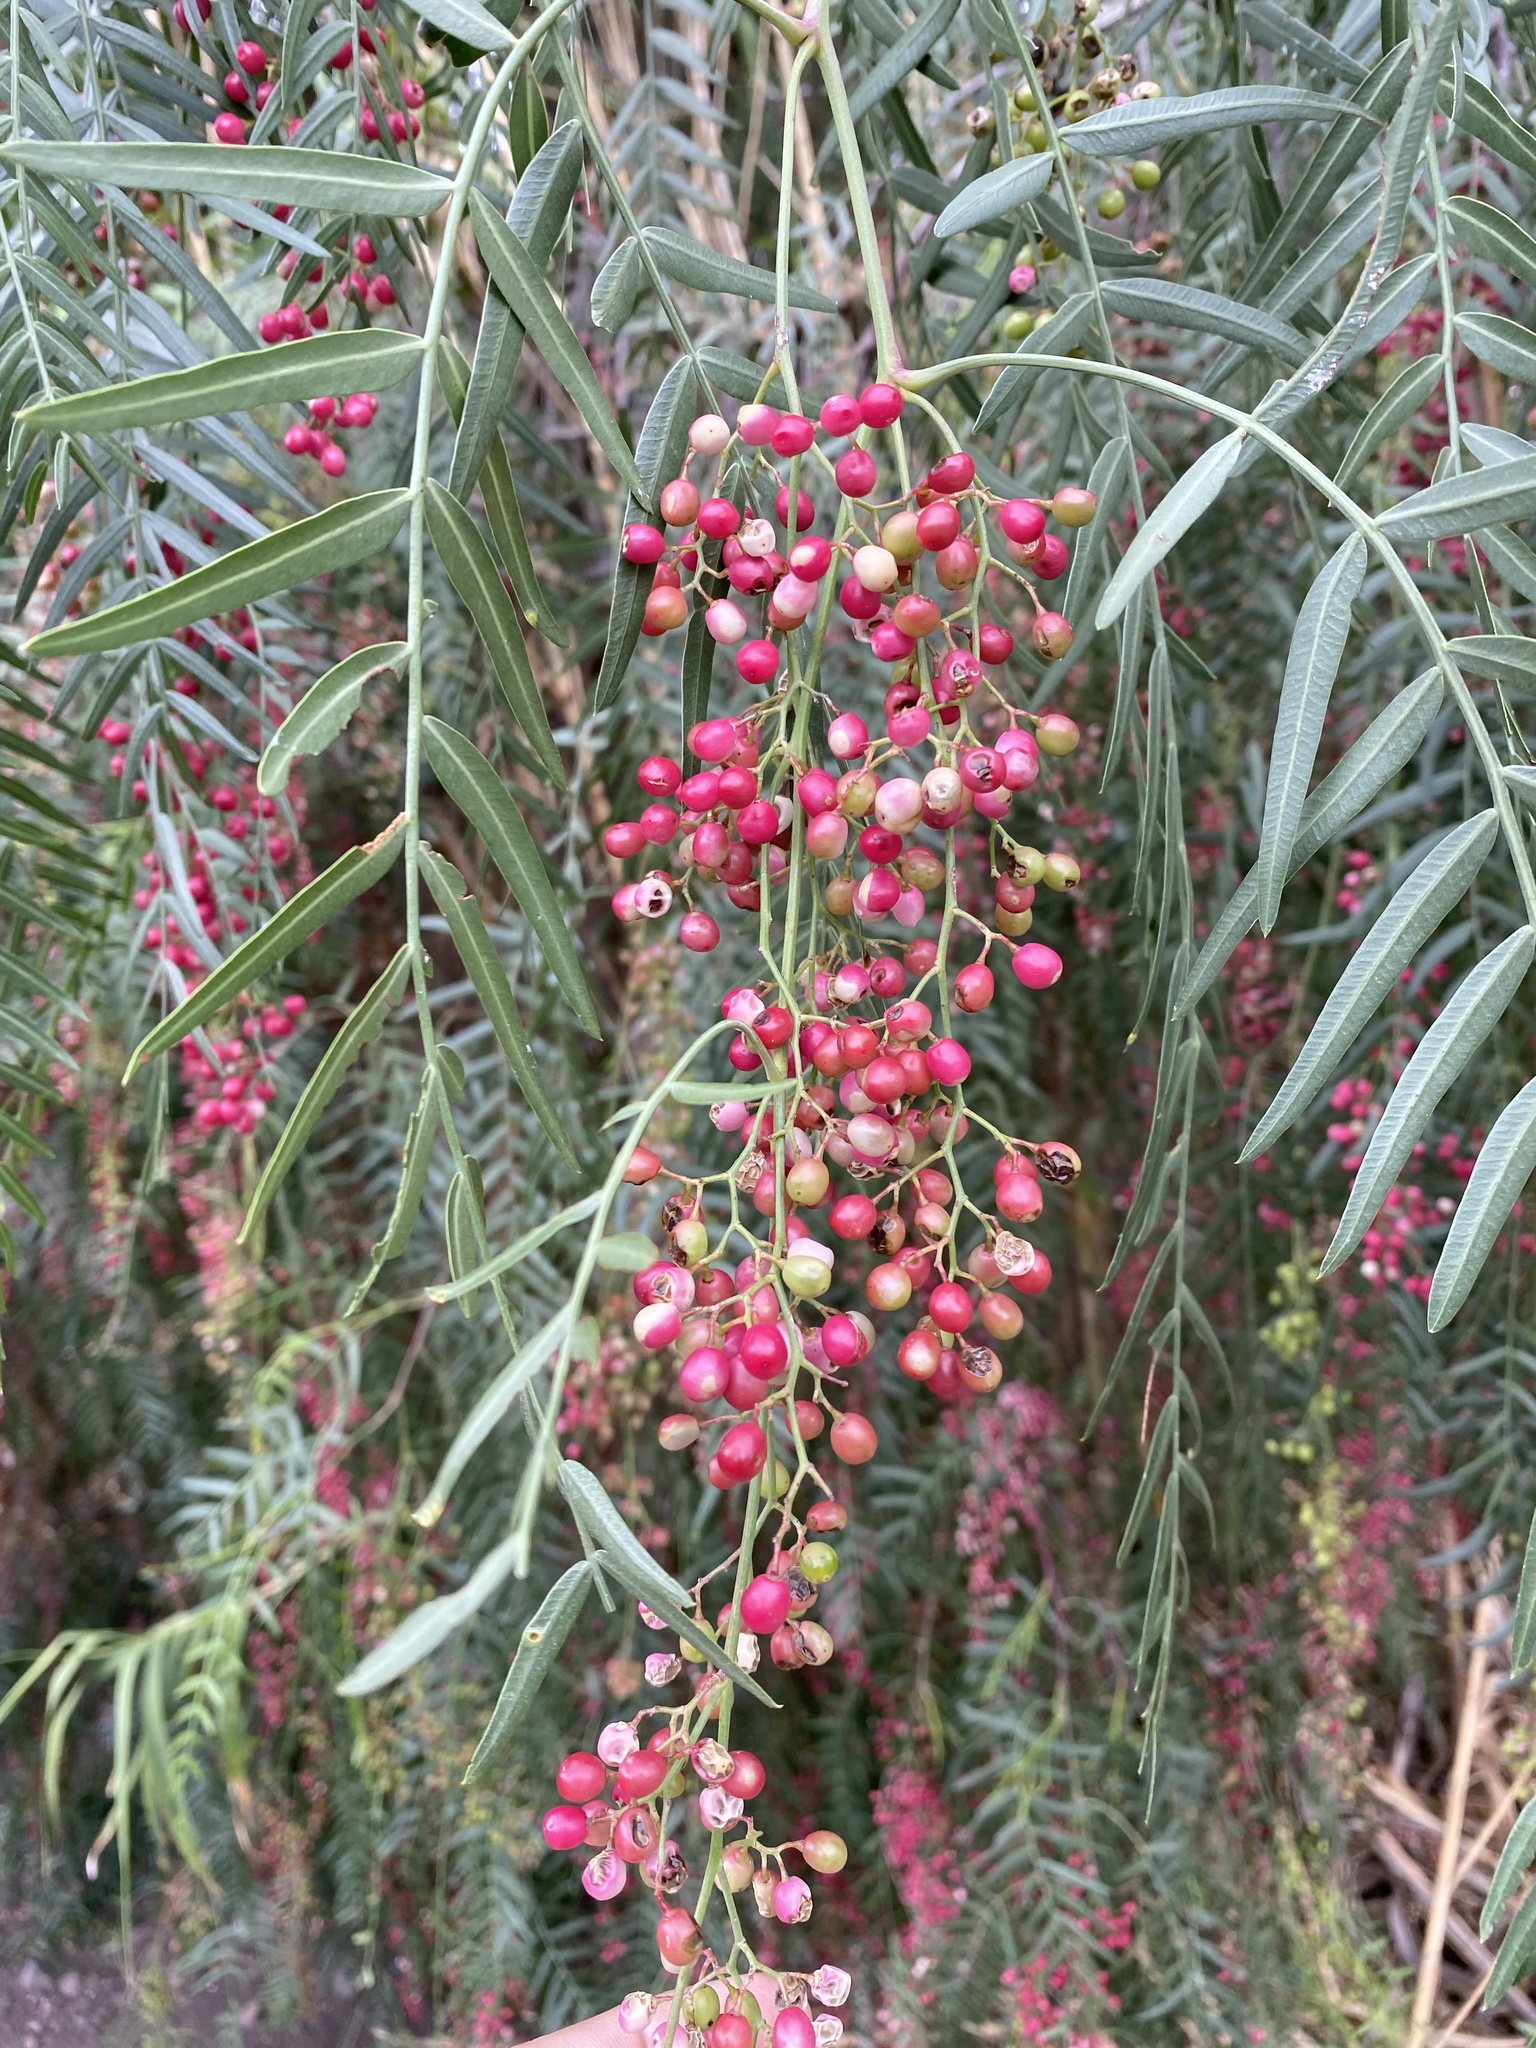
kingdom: Plantae
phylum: Tracheophyta
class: Magnoliopsida
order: Sapindales
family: Anacardiaceae
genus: Schinus
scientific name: Schinus molle
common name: Peruvian peppertree
